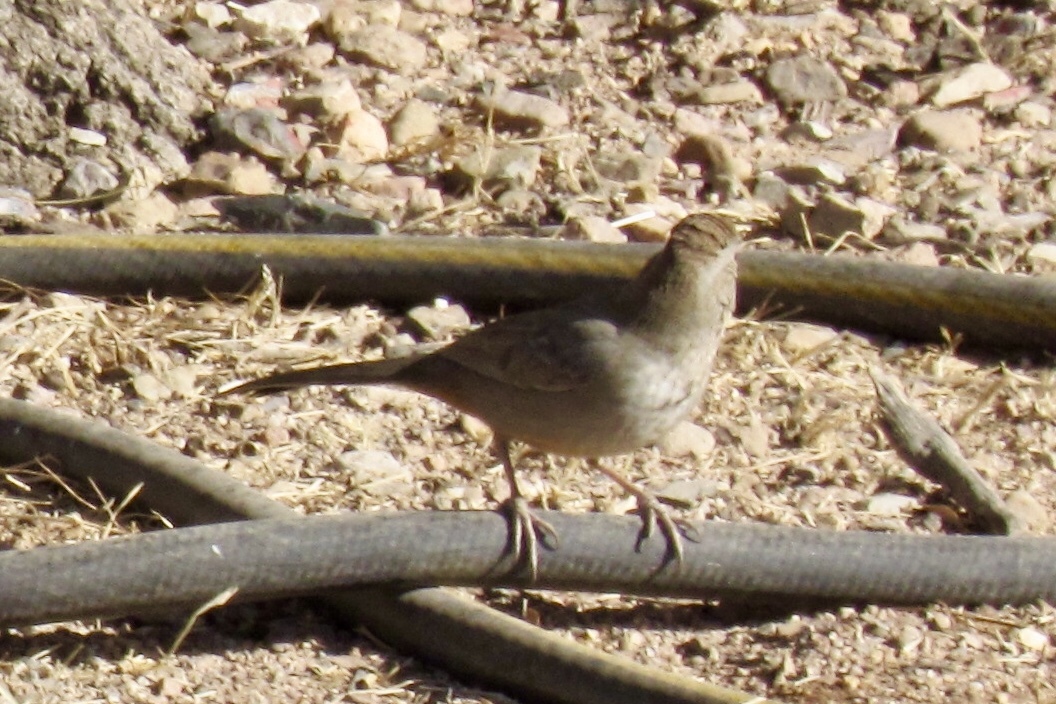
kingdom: Animalia
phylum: Chordata
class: Aves
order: Passeriformes
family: Passerellidae
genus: Melozone
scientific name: Melozone fusca
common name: Canyon towhee
